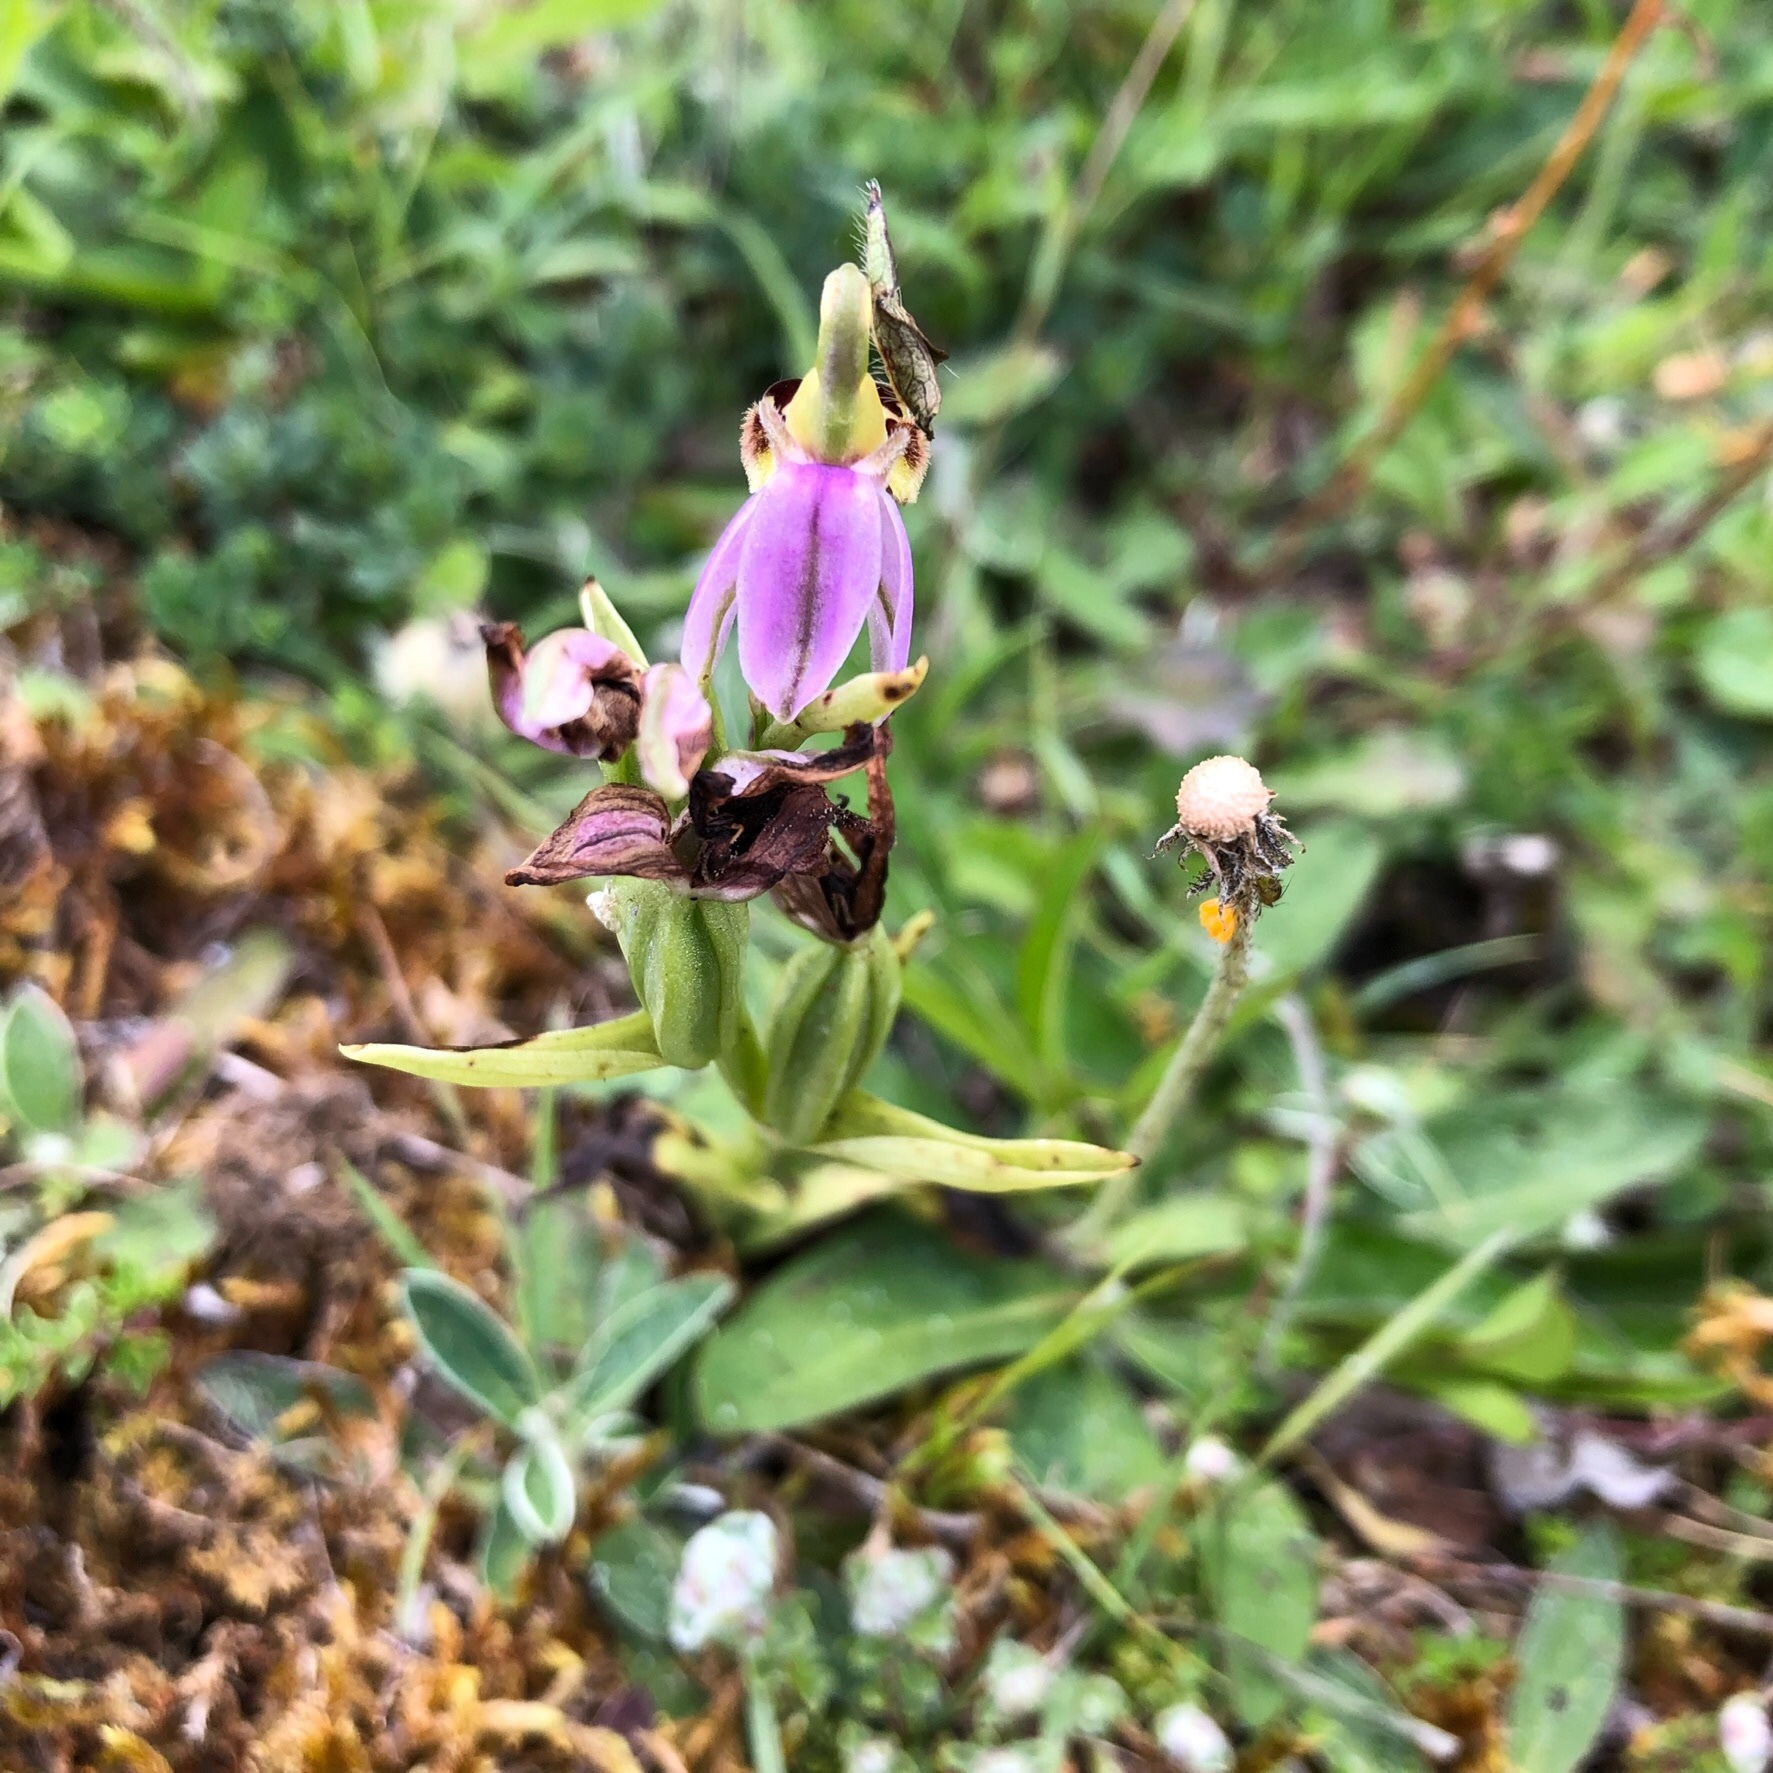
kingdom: Plantae
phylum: Tracheophyta
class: Liliopsida
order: Asparagales
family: Orchidaceae
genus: Ophrys
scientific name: Ophrys apifera
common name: Bee orchid
